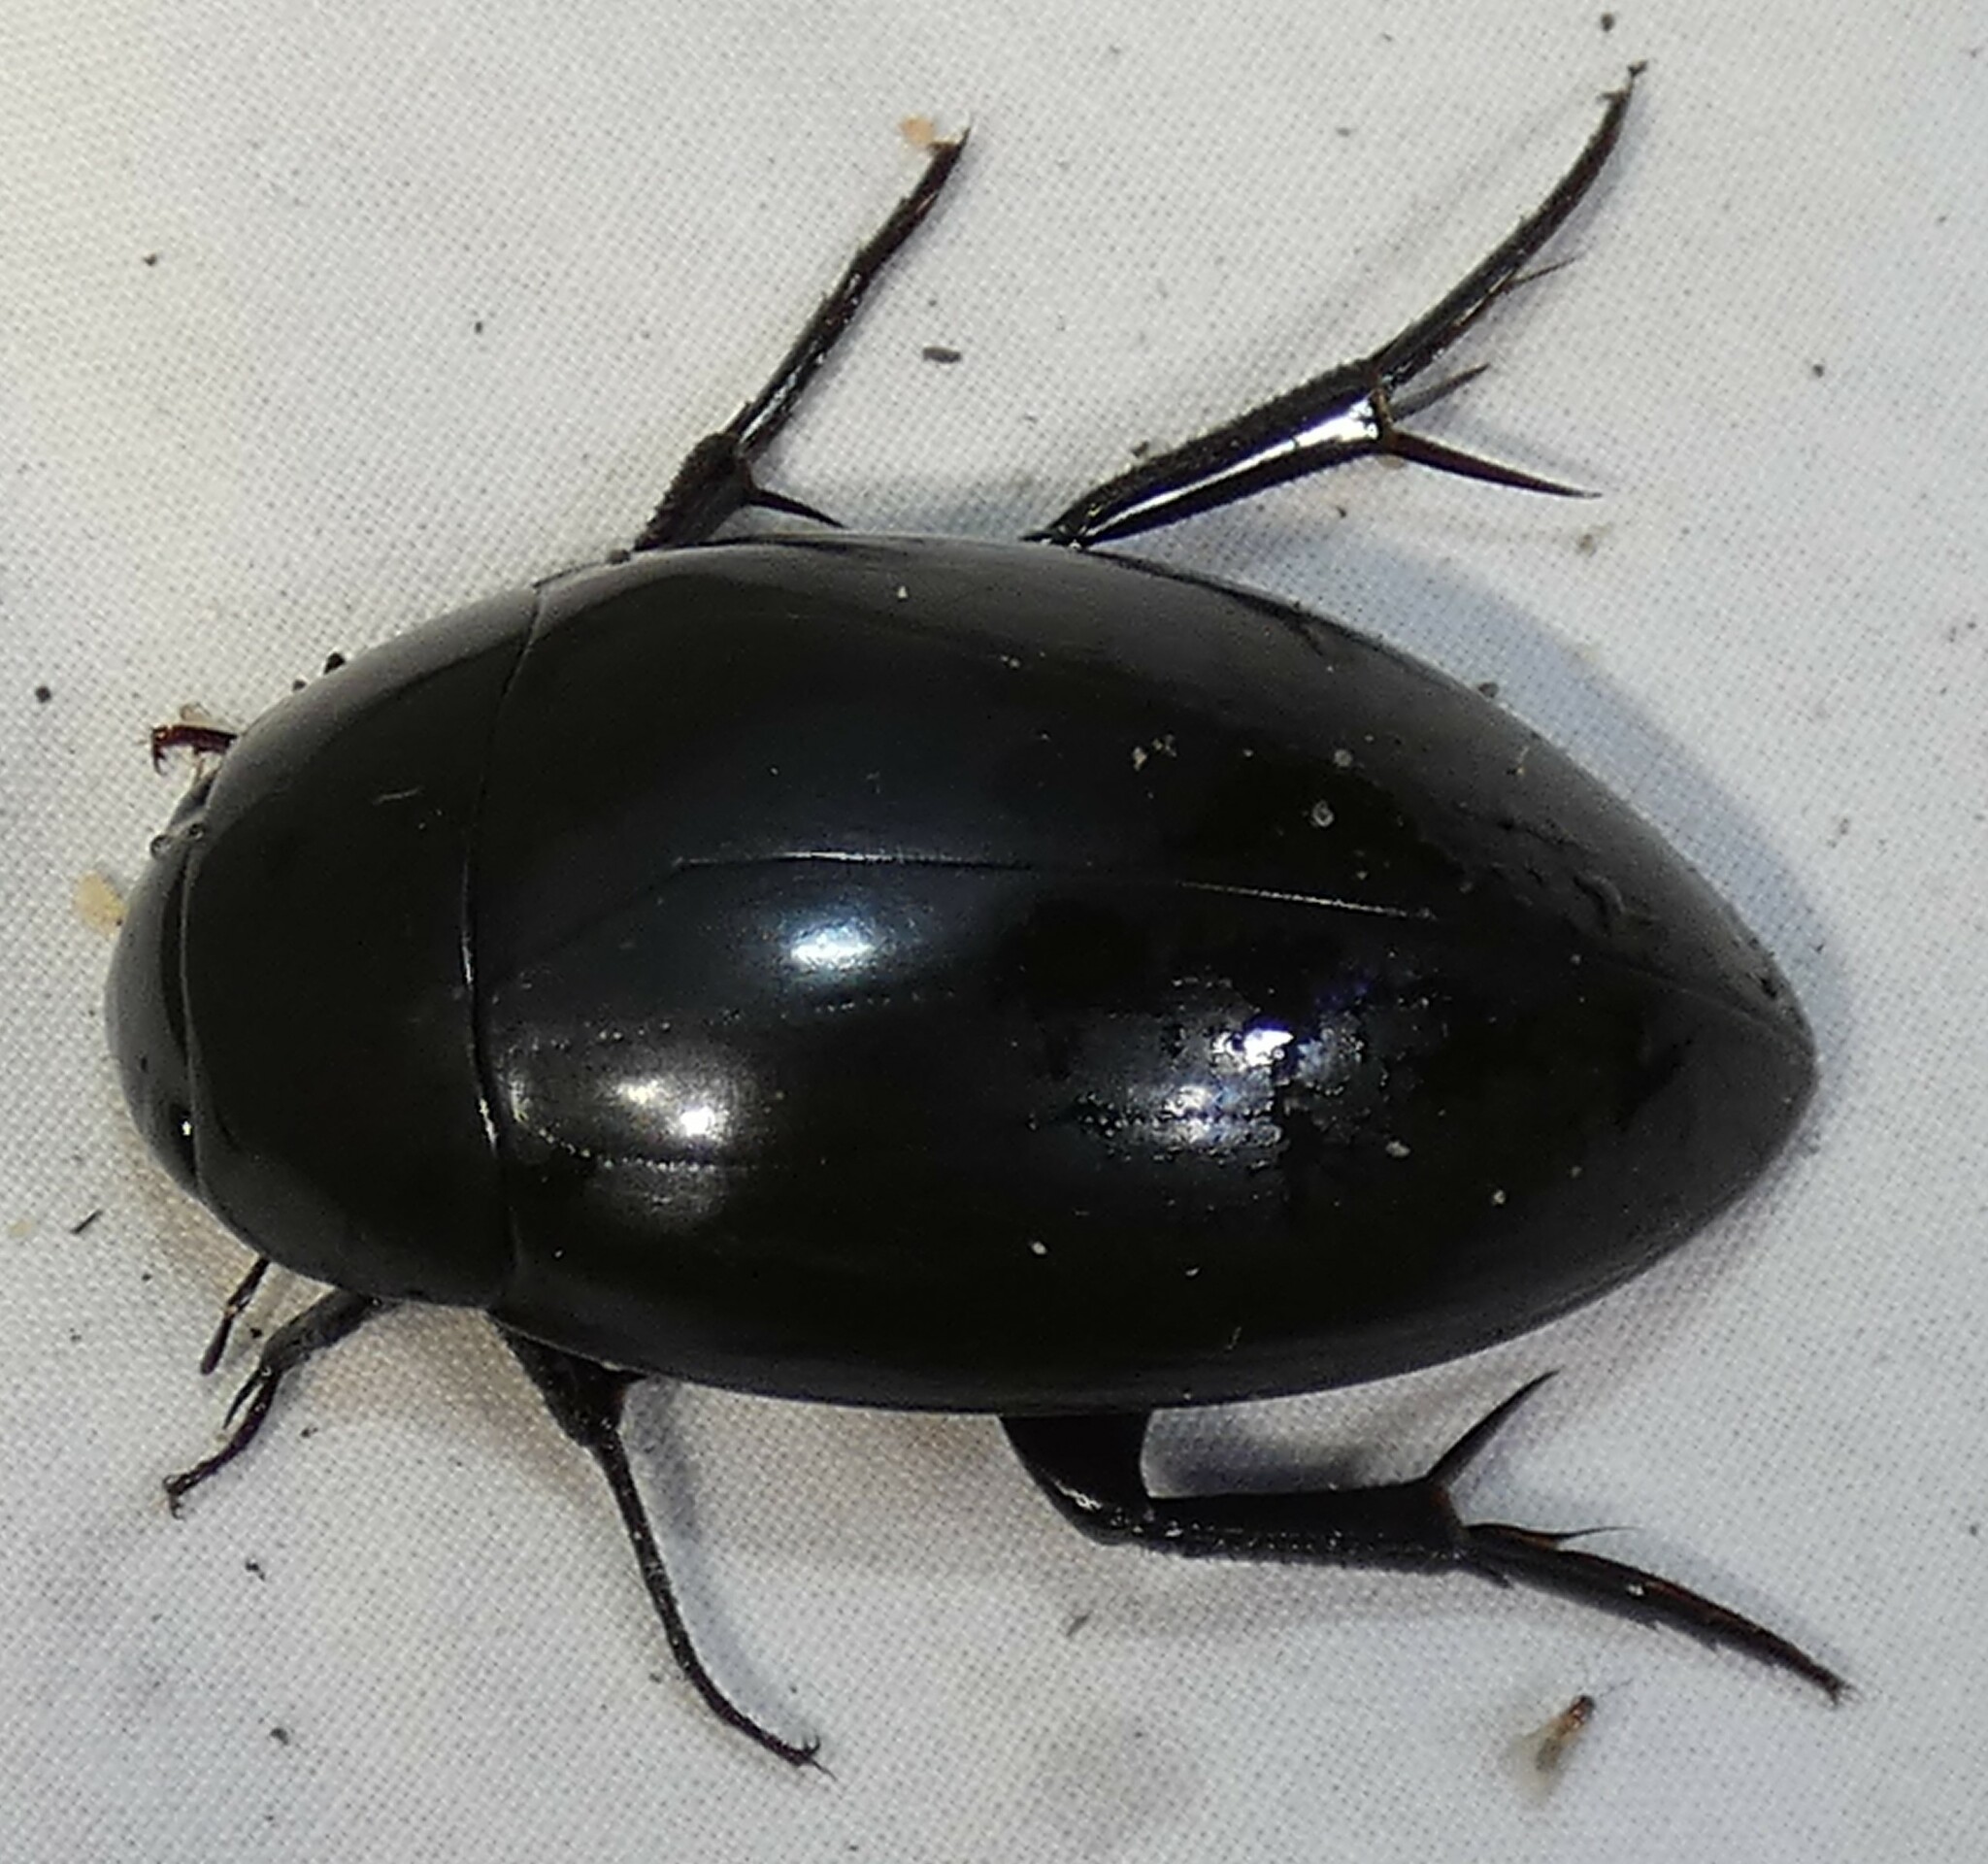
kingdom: Animalia
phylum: Arthropoda
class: Insecta
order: Coleoptera
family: Hydrophilidae
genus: Hydrophilus
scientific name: Hydrophilus ovatus
